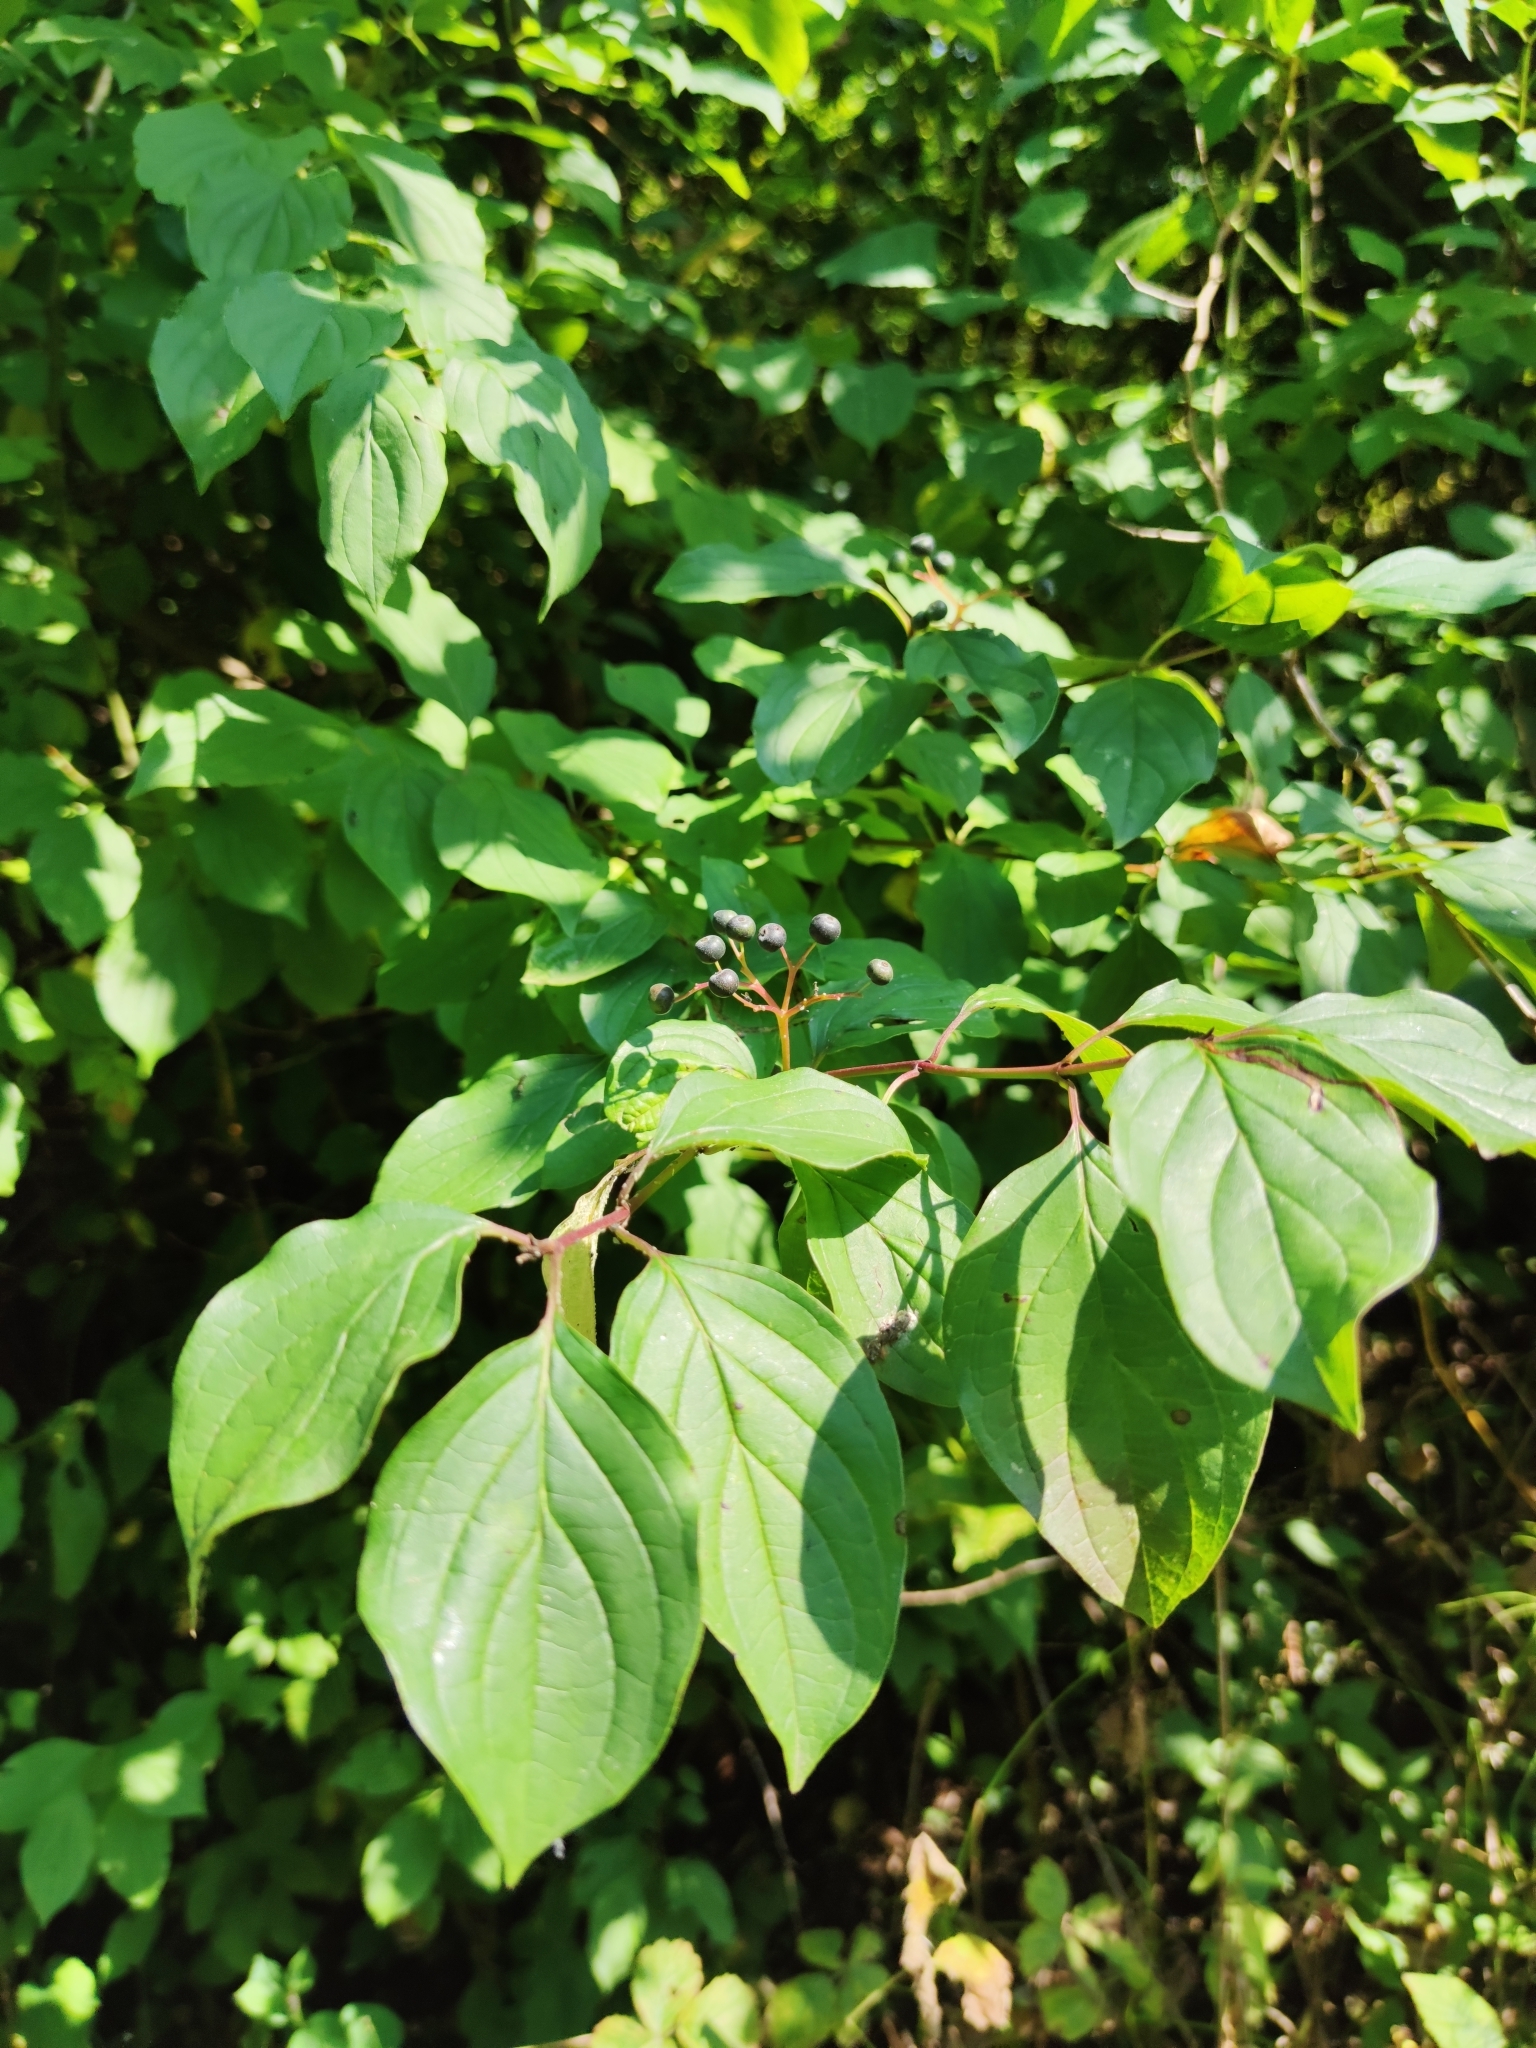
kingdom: Plantae
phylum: Tracheophyta
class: Magnoliopsida
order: Cornales
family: Cornaceae
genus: Cornus
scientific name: Cornus sanguinea
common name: Dogwood
